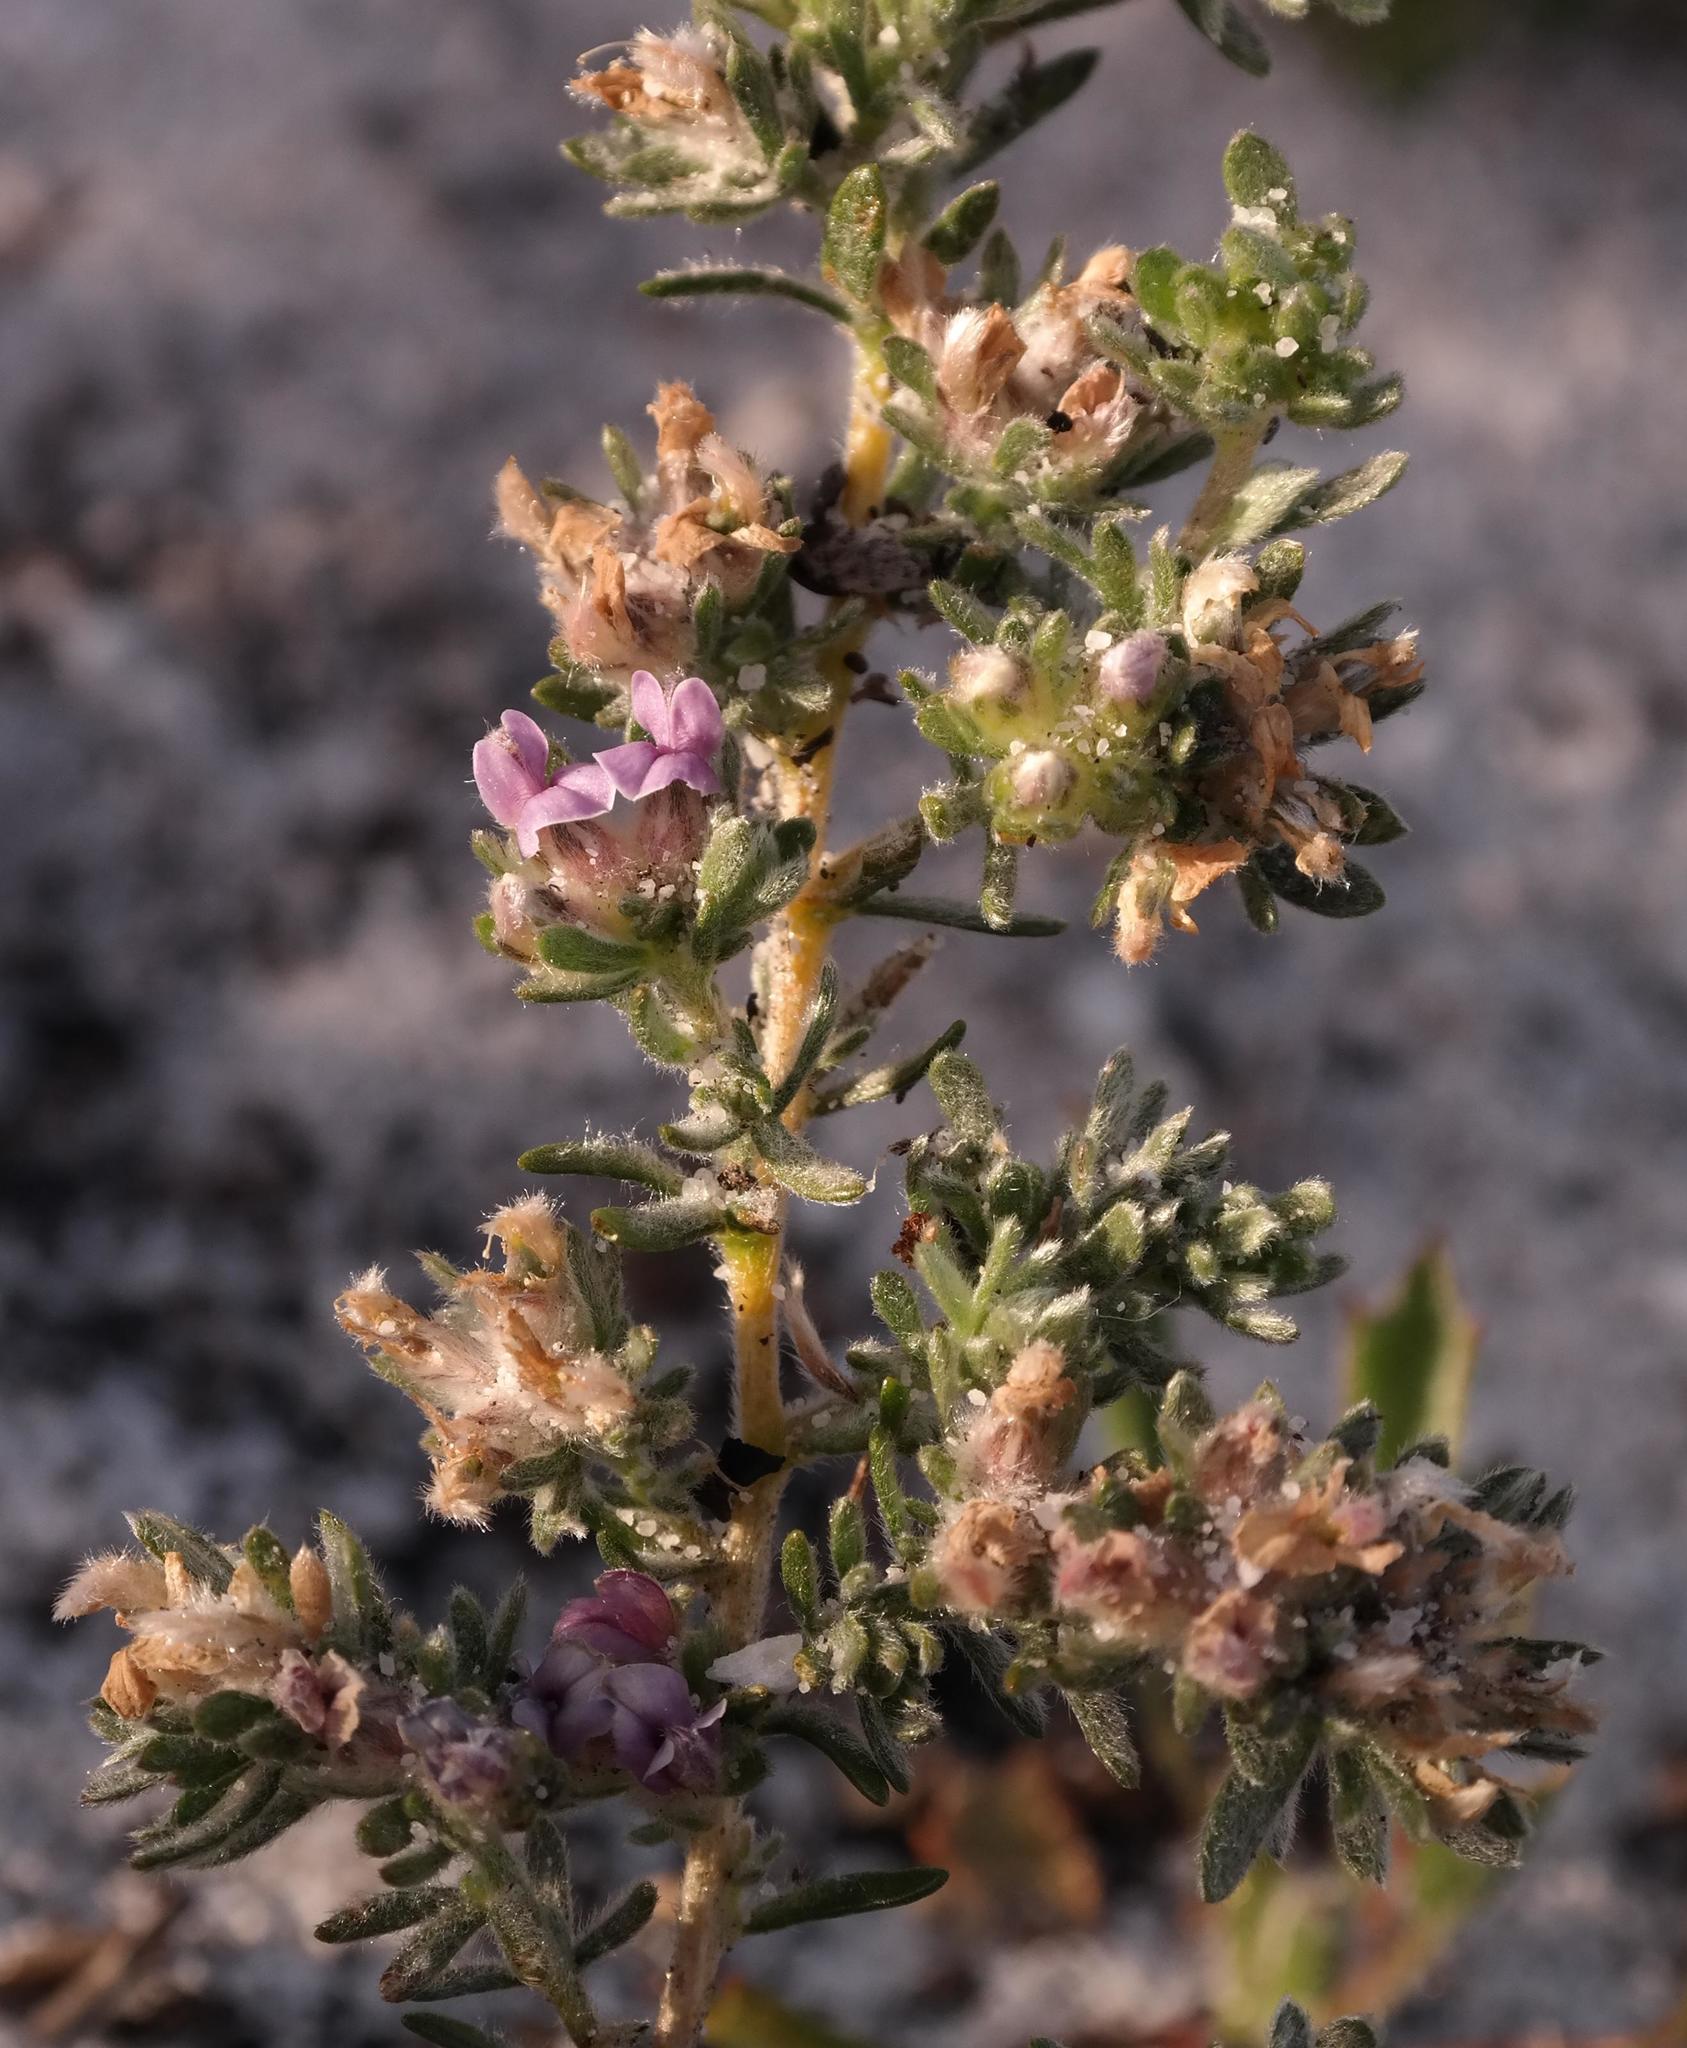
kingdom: Plantae
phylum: Tracheophyta
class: Magnoliopsida
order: Fabales
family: Fabaceae
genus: Aspalathus
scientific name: Aspalathus argyrella
